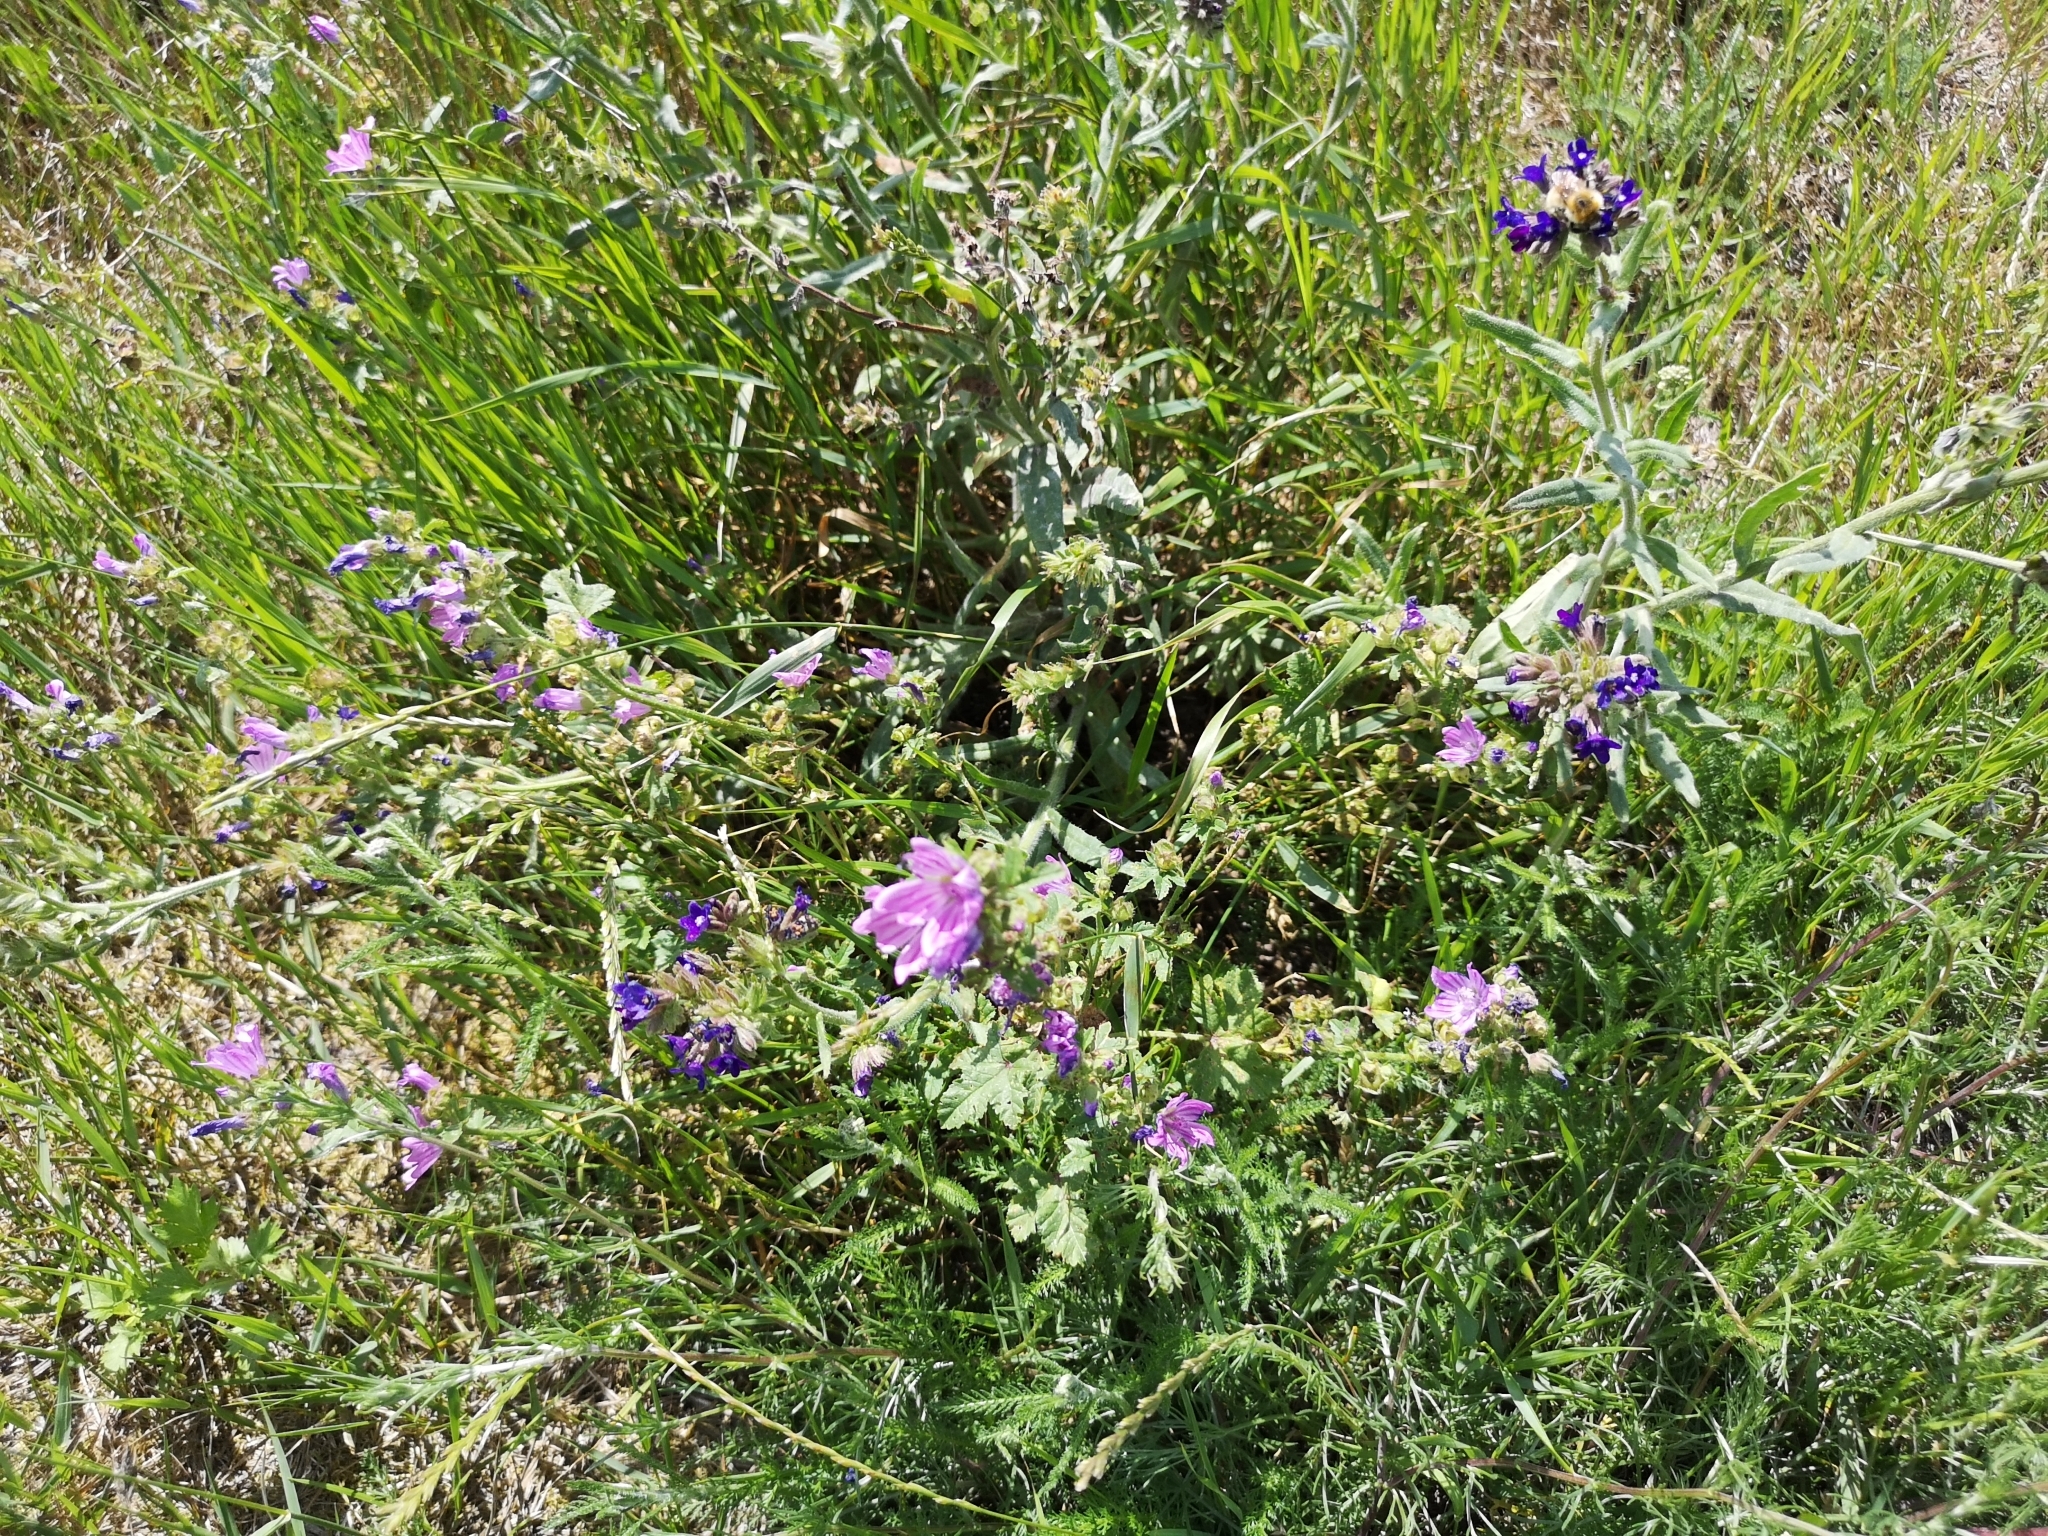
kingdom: Plantae
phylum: Tracheophyta
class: Magnoliopsida
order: Boraginales
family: Boraginaceae
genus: Anchusa
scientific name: Anchusa officinalis
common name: Alkanet
